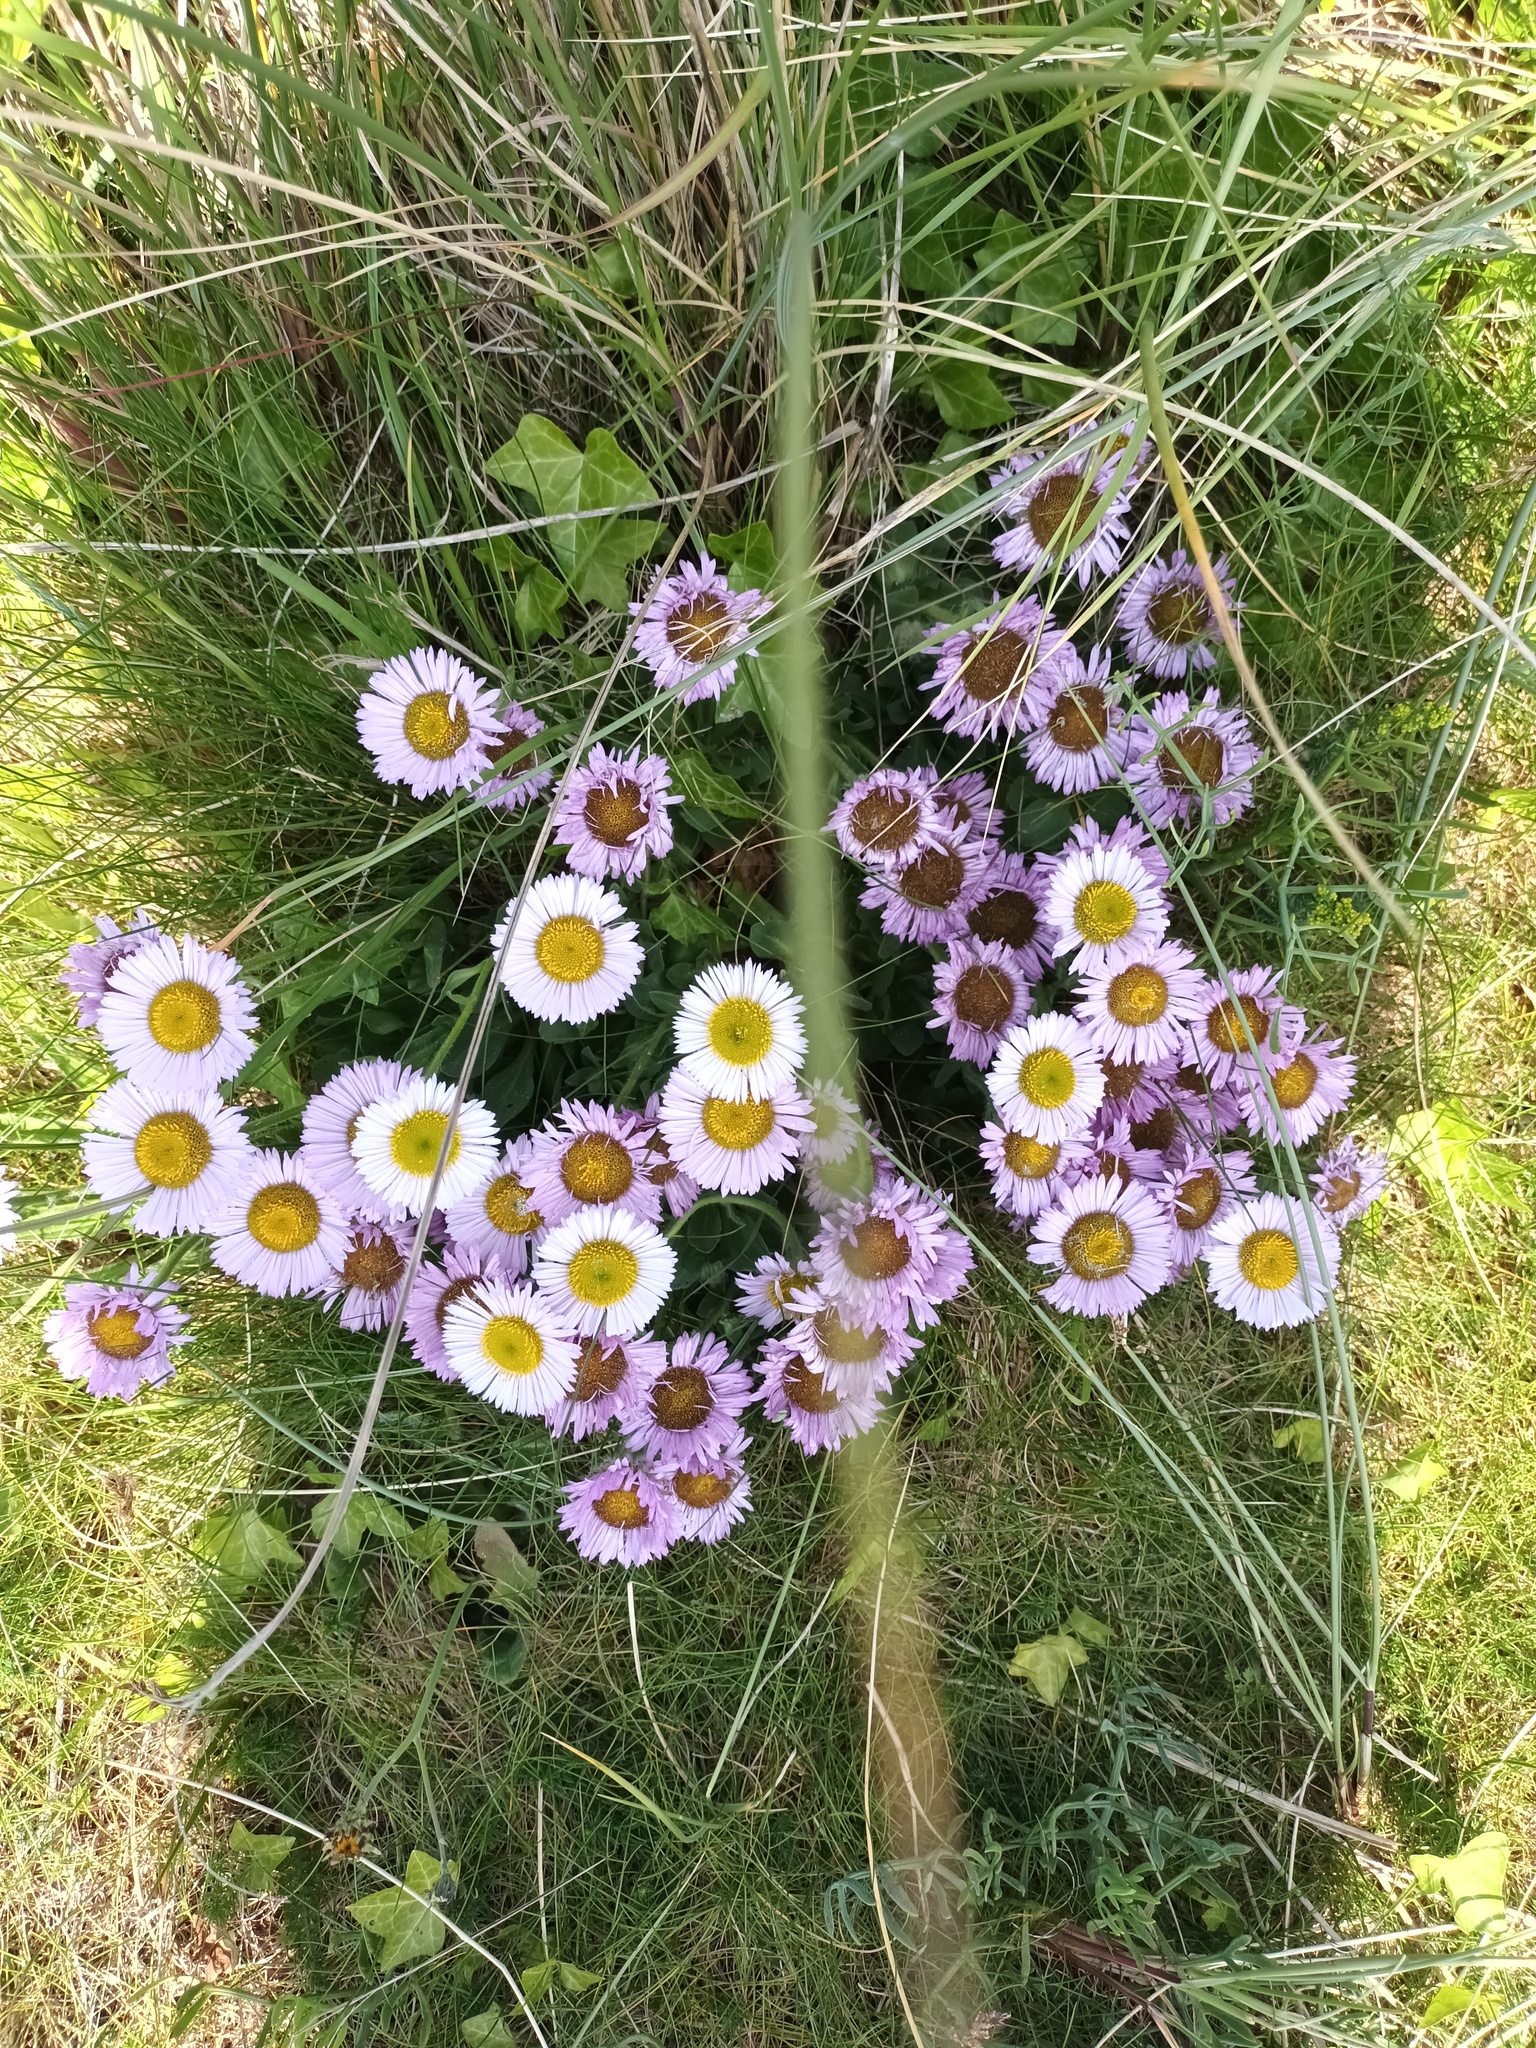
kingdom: Plantae
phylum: Tracheophyta
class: Magnoliopsida
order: Asterales
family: Asteraceae
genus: Erigeron
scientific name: Erigeron glaucus
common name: Seaside daisy
